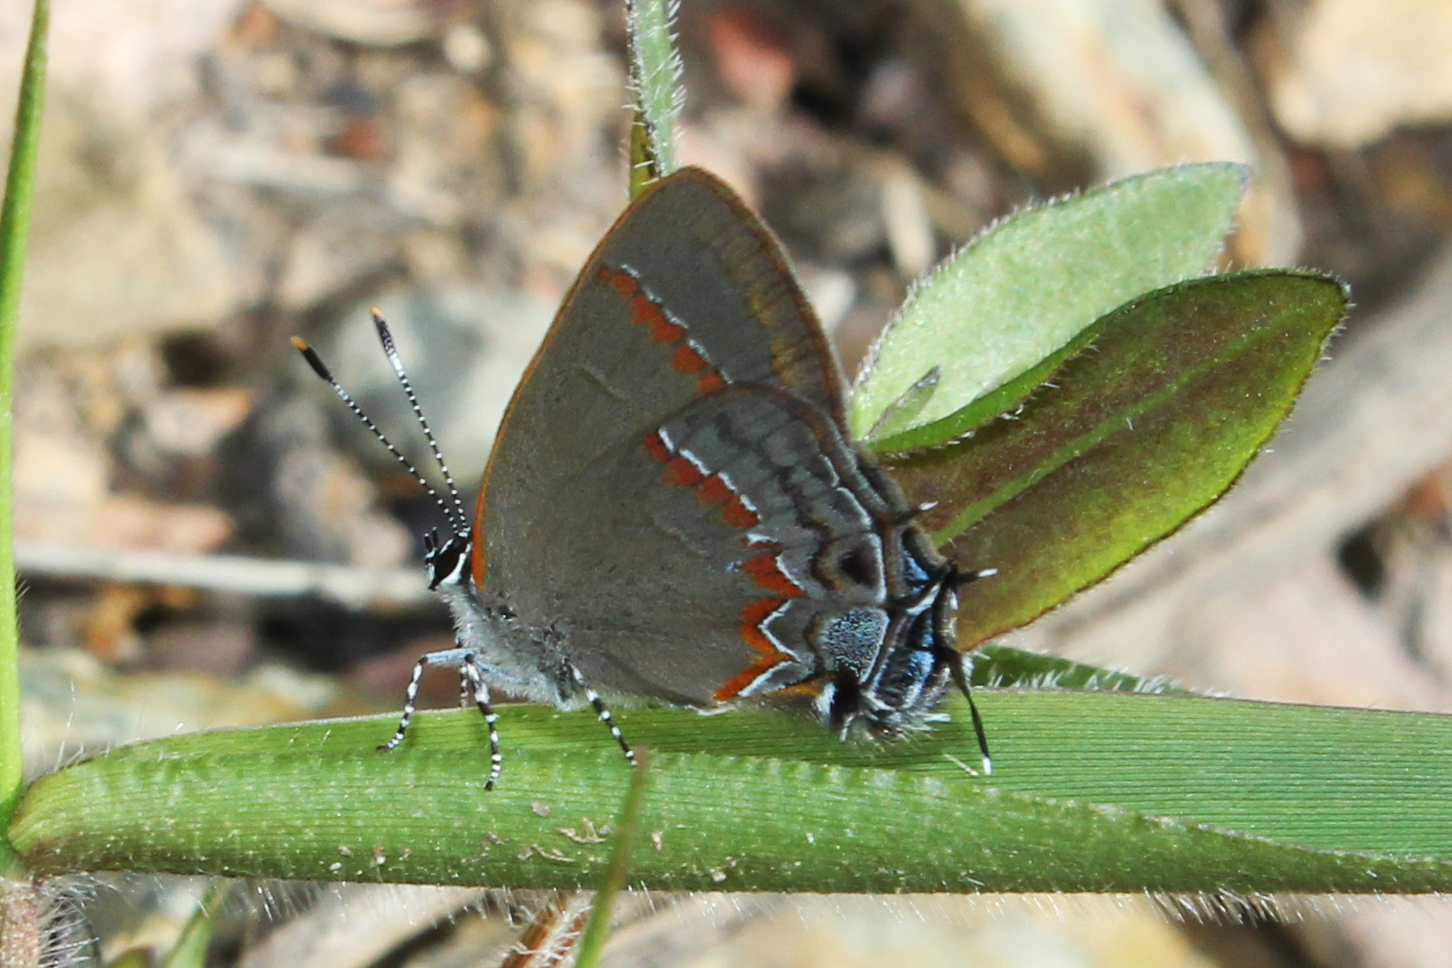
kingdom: Animalia
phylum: Arthropoda
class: Insecta
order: Lepidoptera
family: Lycaenidae
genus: Calycopis
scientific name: Calycopis cecrops
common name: Red-banded hairstreak
